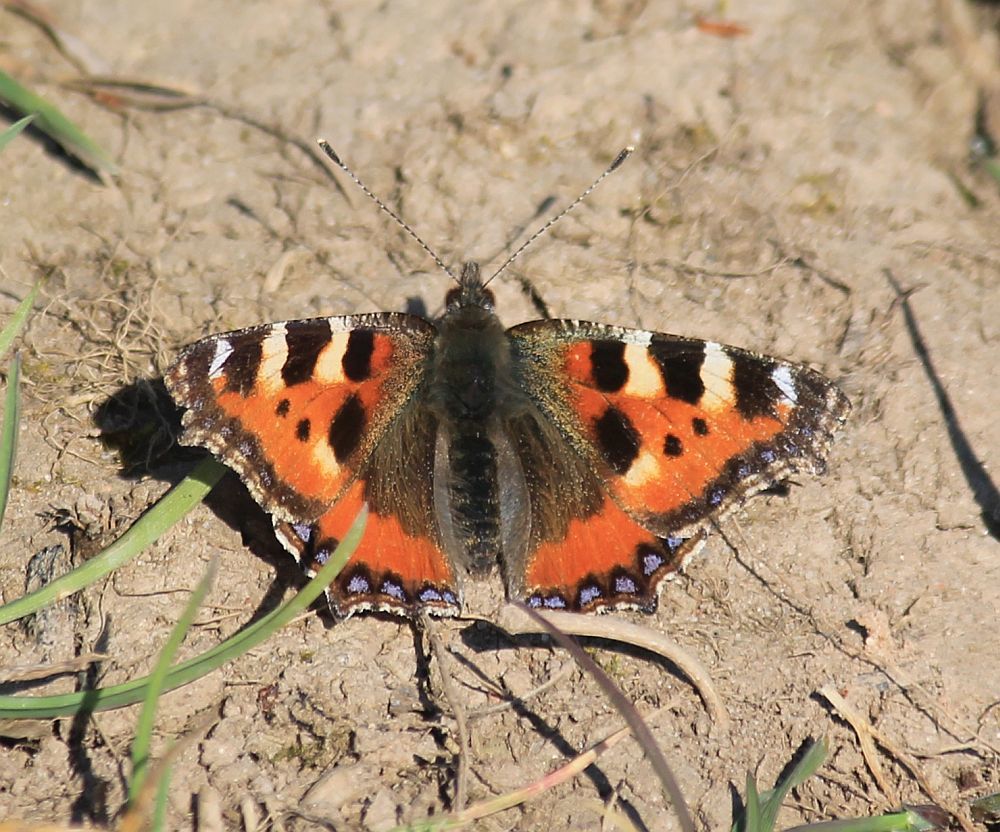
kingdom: Animalia
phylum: Arthropoda
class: Insecta
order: Lepidoptera
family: Nymphalidae
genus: Aglais
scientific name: Aglais urticae
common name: Small tortoiseshell
